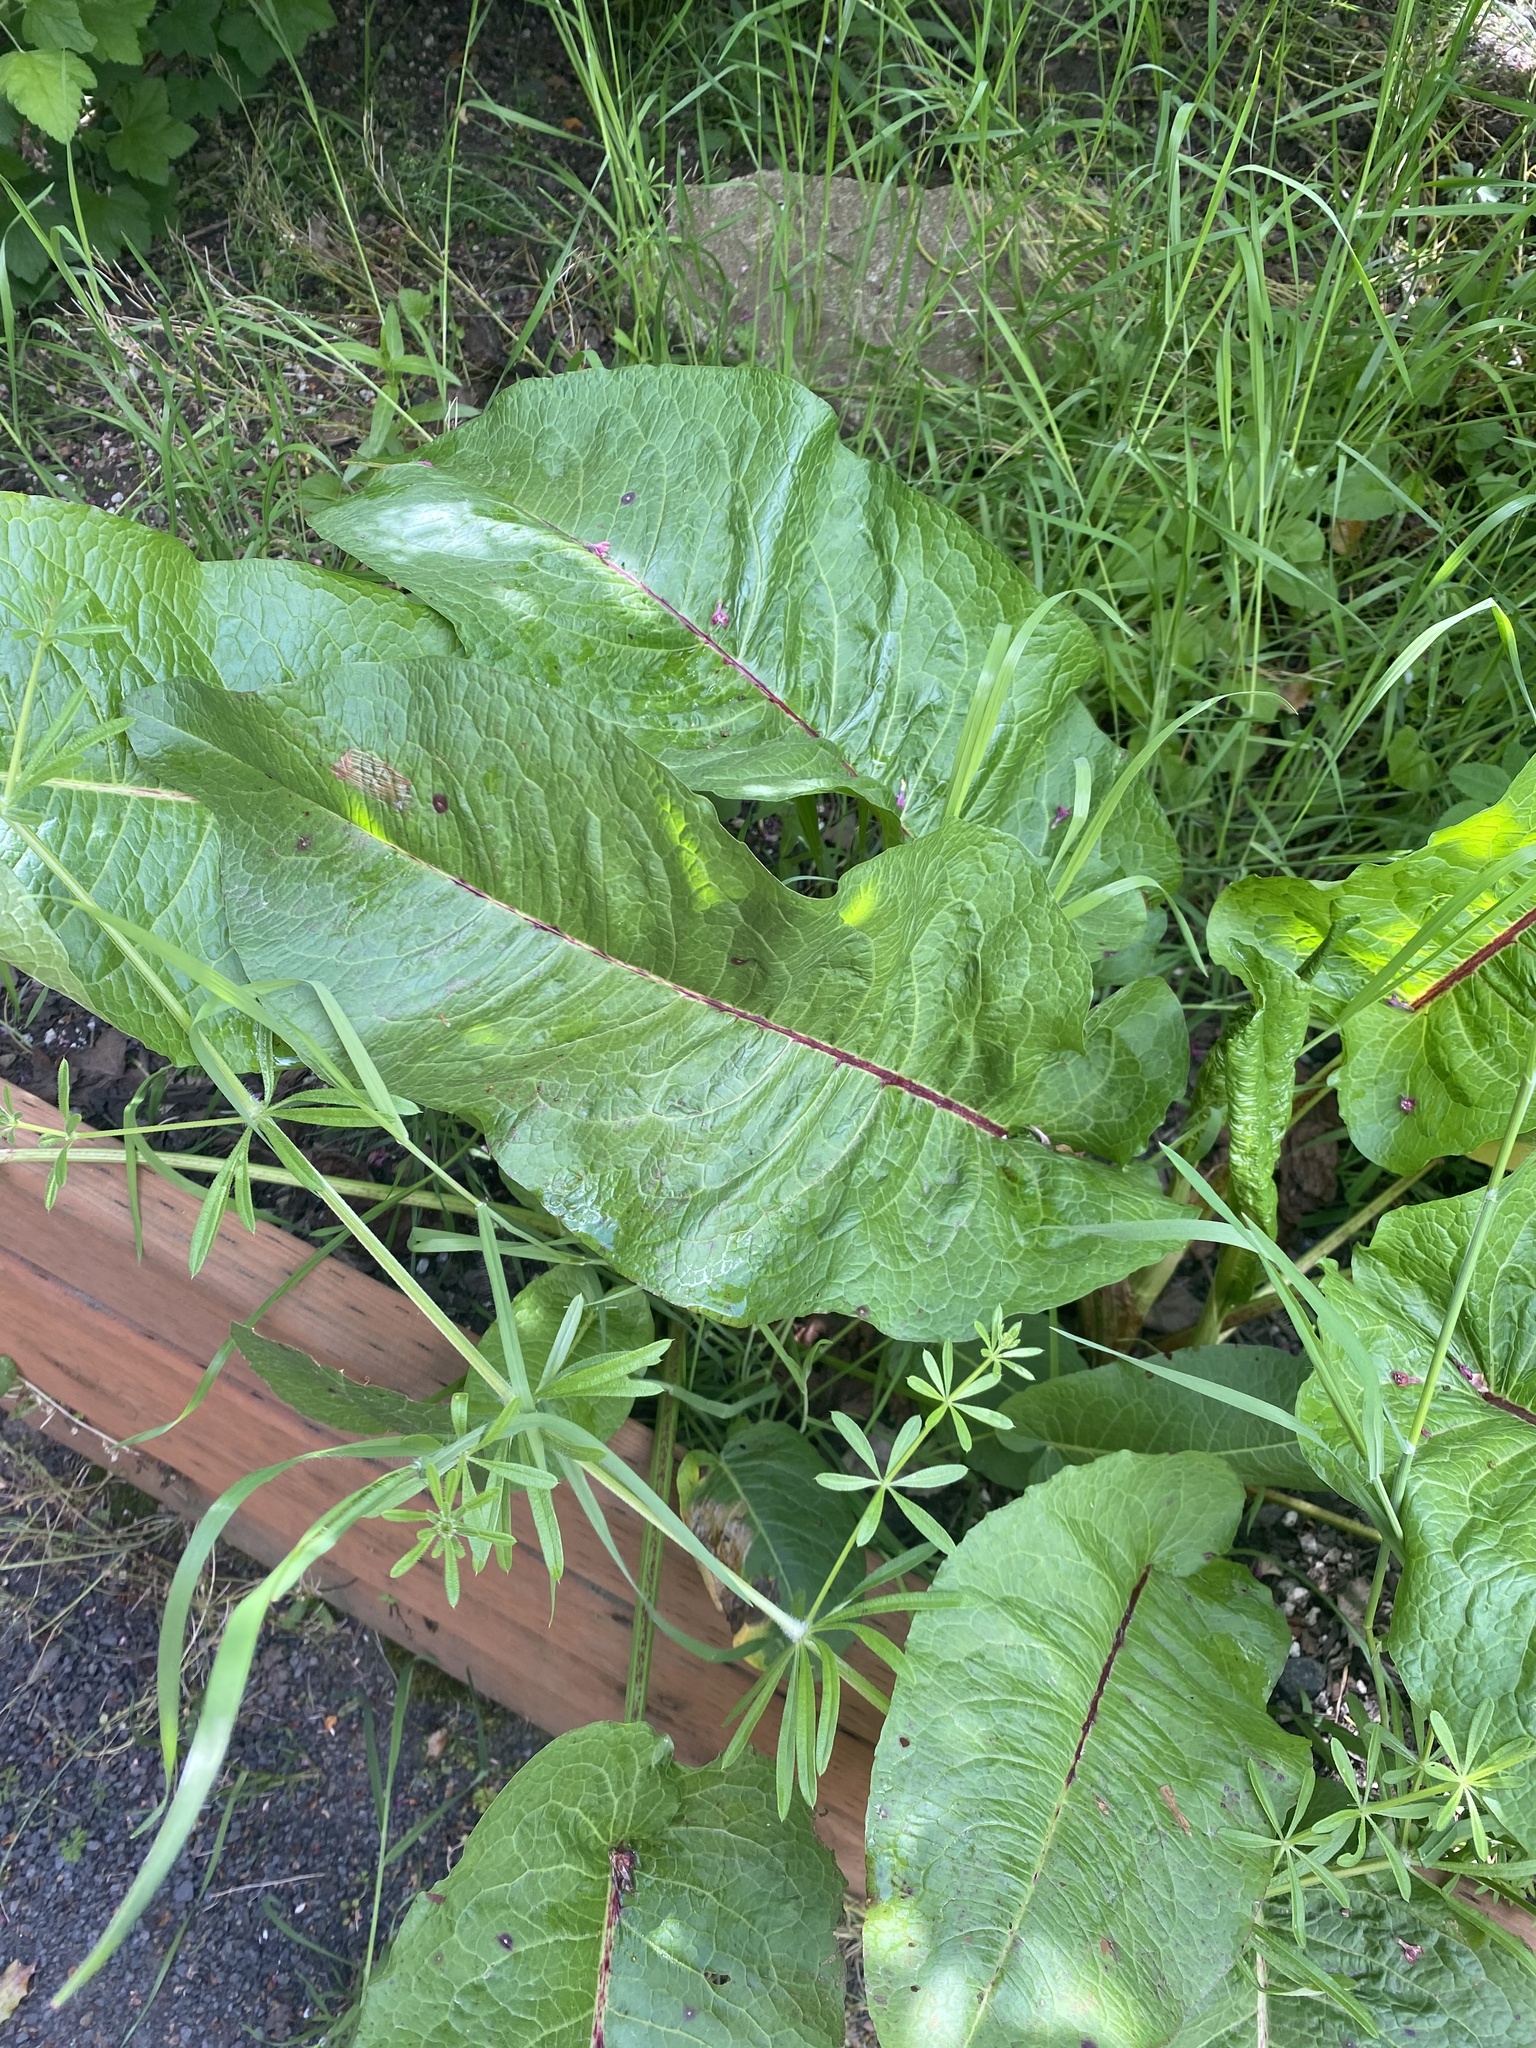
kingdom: Plantae
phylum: Tracheophyta
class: Magnoliopsida
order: Caryophyllales
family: Polygonaceae
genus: Rumex
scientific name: Rumex obtusifolius
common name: Bitter dock
